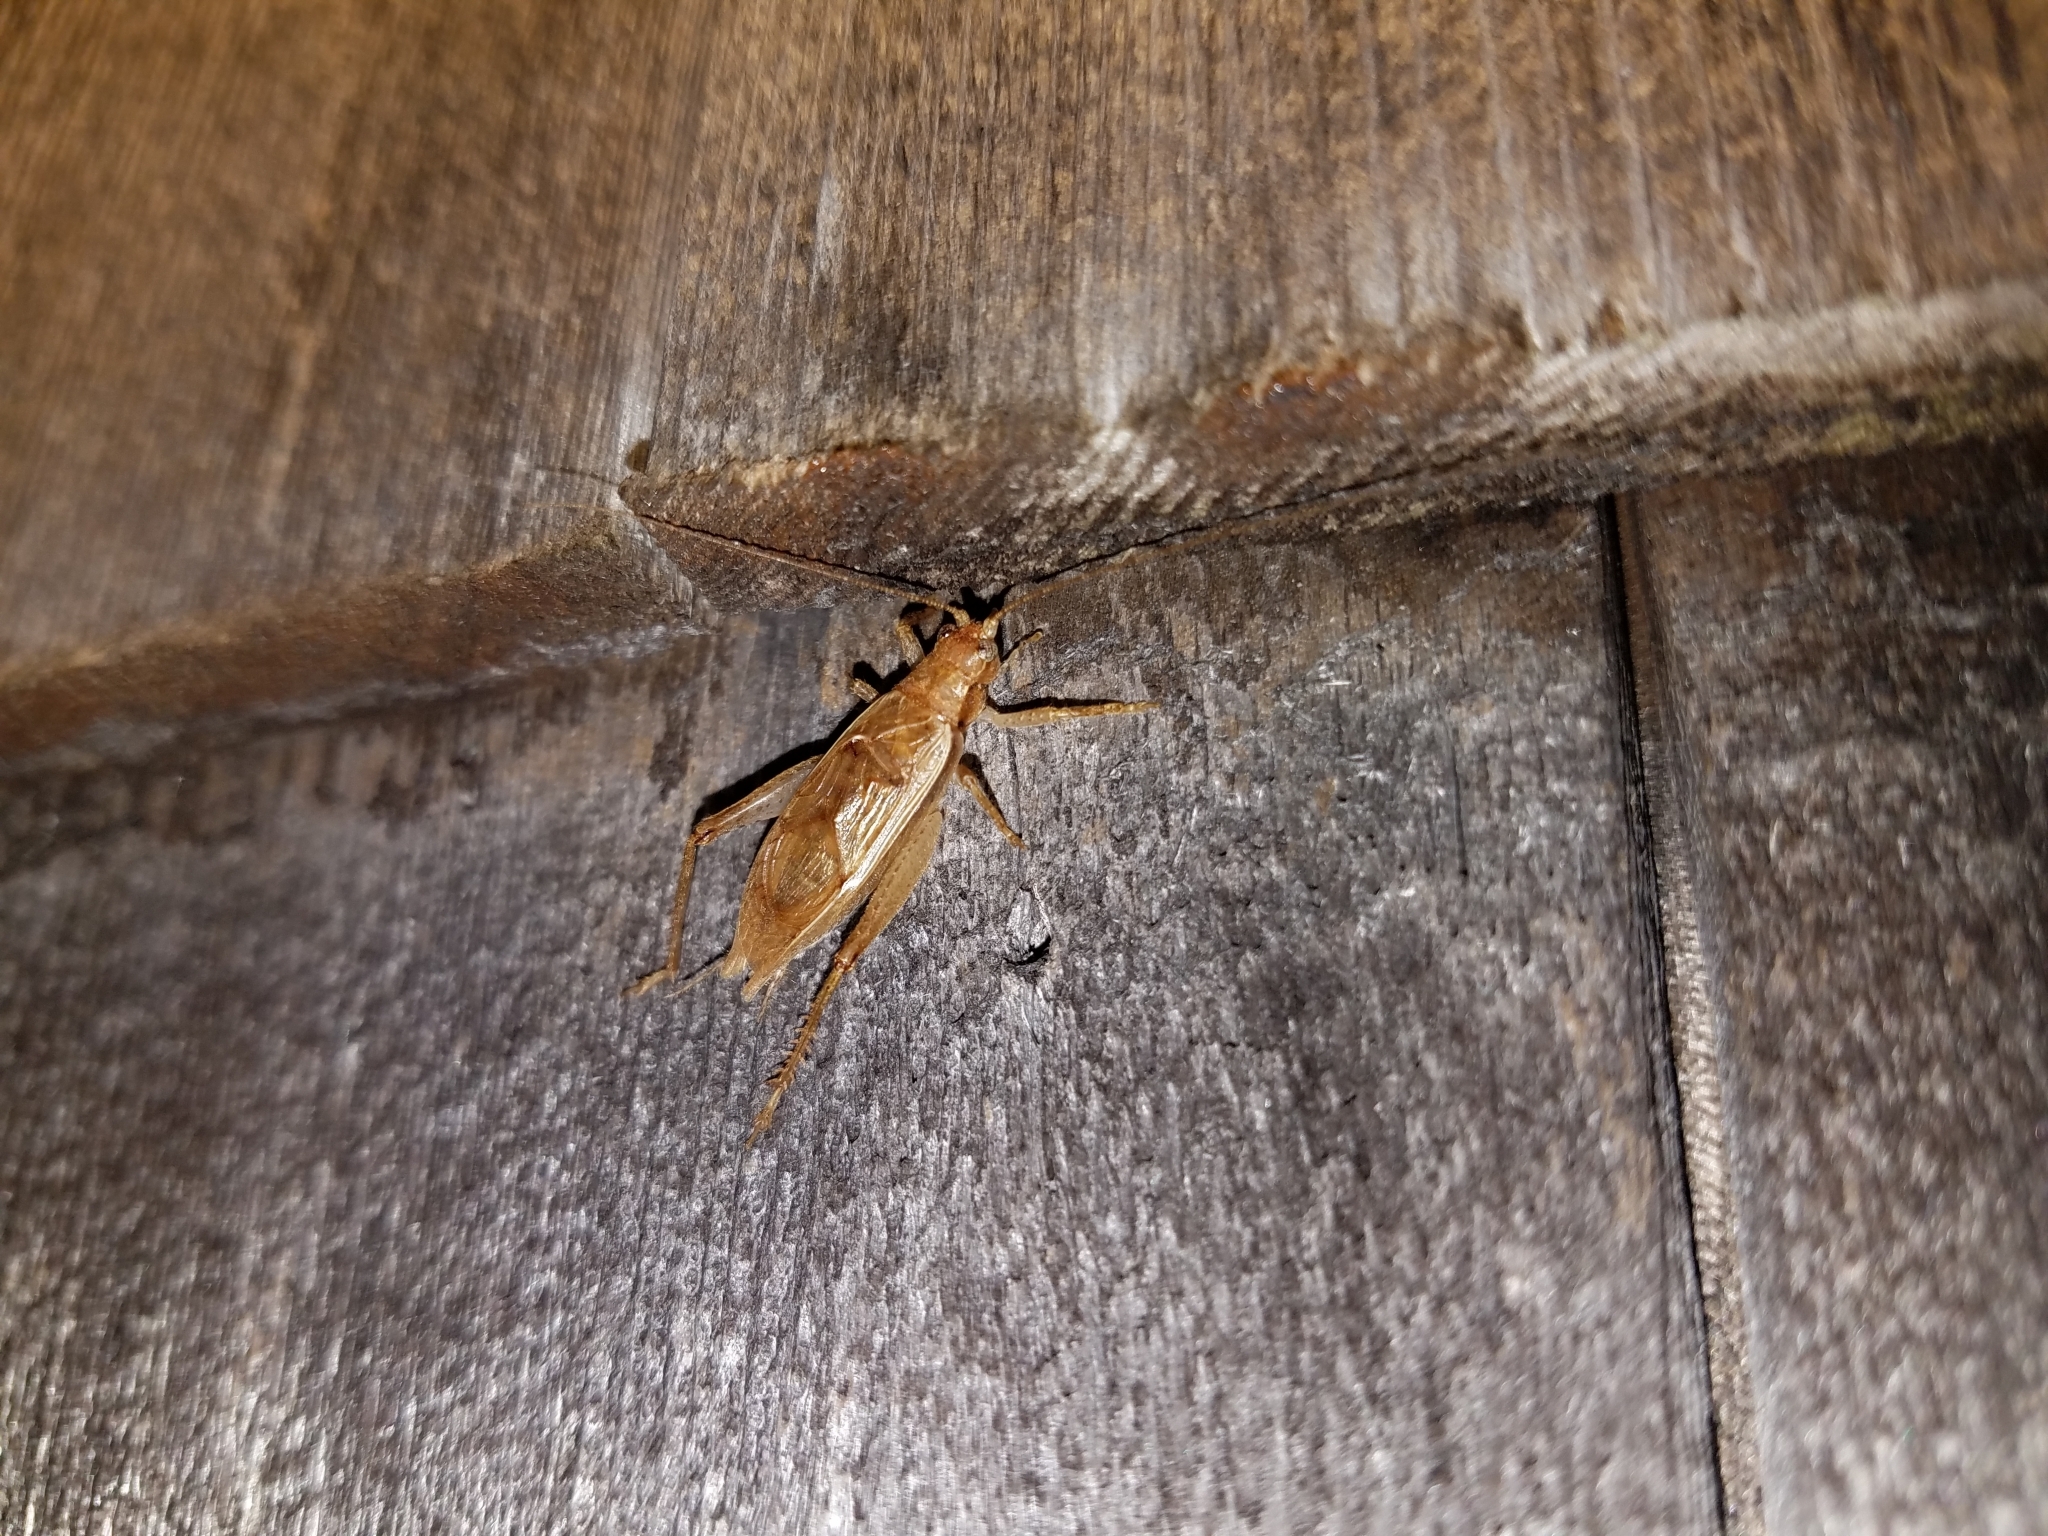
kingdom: Animalia
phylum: Arthropoda
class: Insecta
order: Orthoptera
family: Gryllidae
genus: Hapithus
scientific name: Hapithus saltator
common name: Jumping bush cricket
